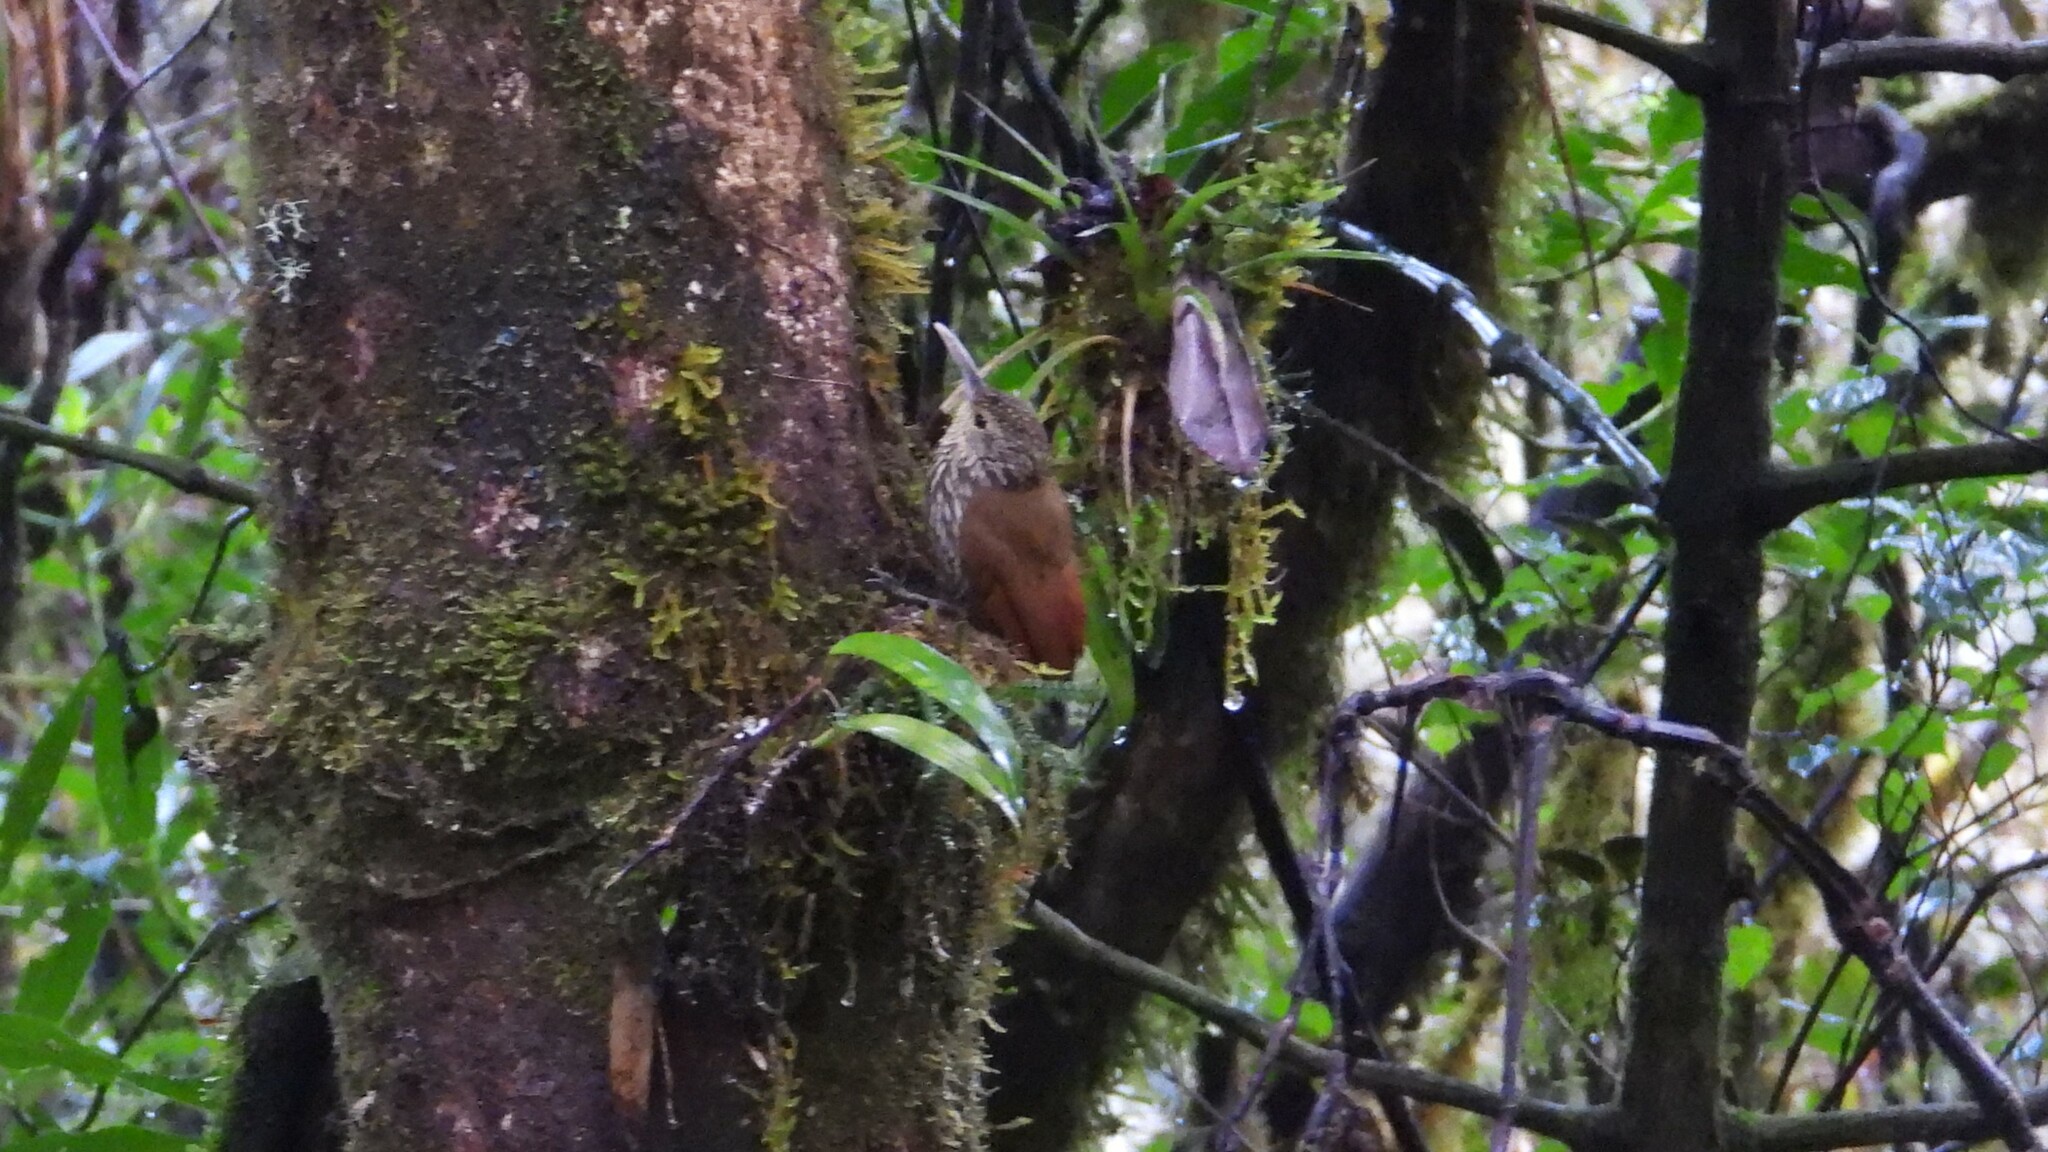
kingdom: Animalia
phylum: Chordata
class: Aves
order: Passeriformes
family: Furnariidae
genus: Lepidocolaptes
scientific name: Lepidocolaptes affinis
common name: Spot-crowned woodcreeper
